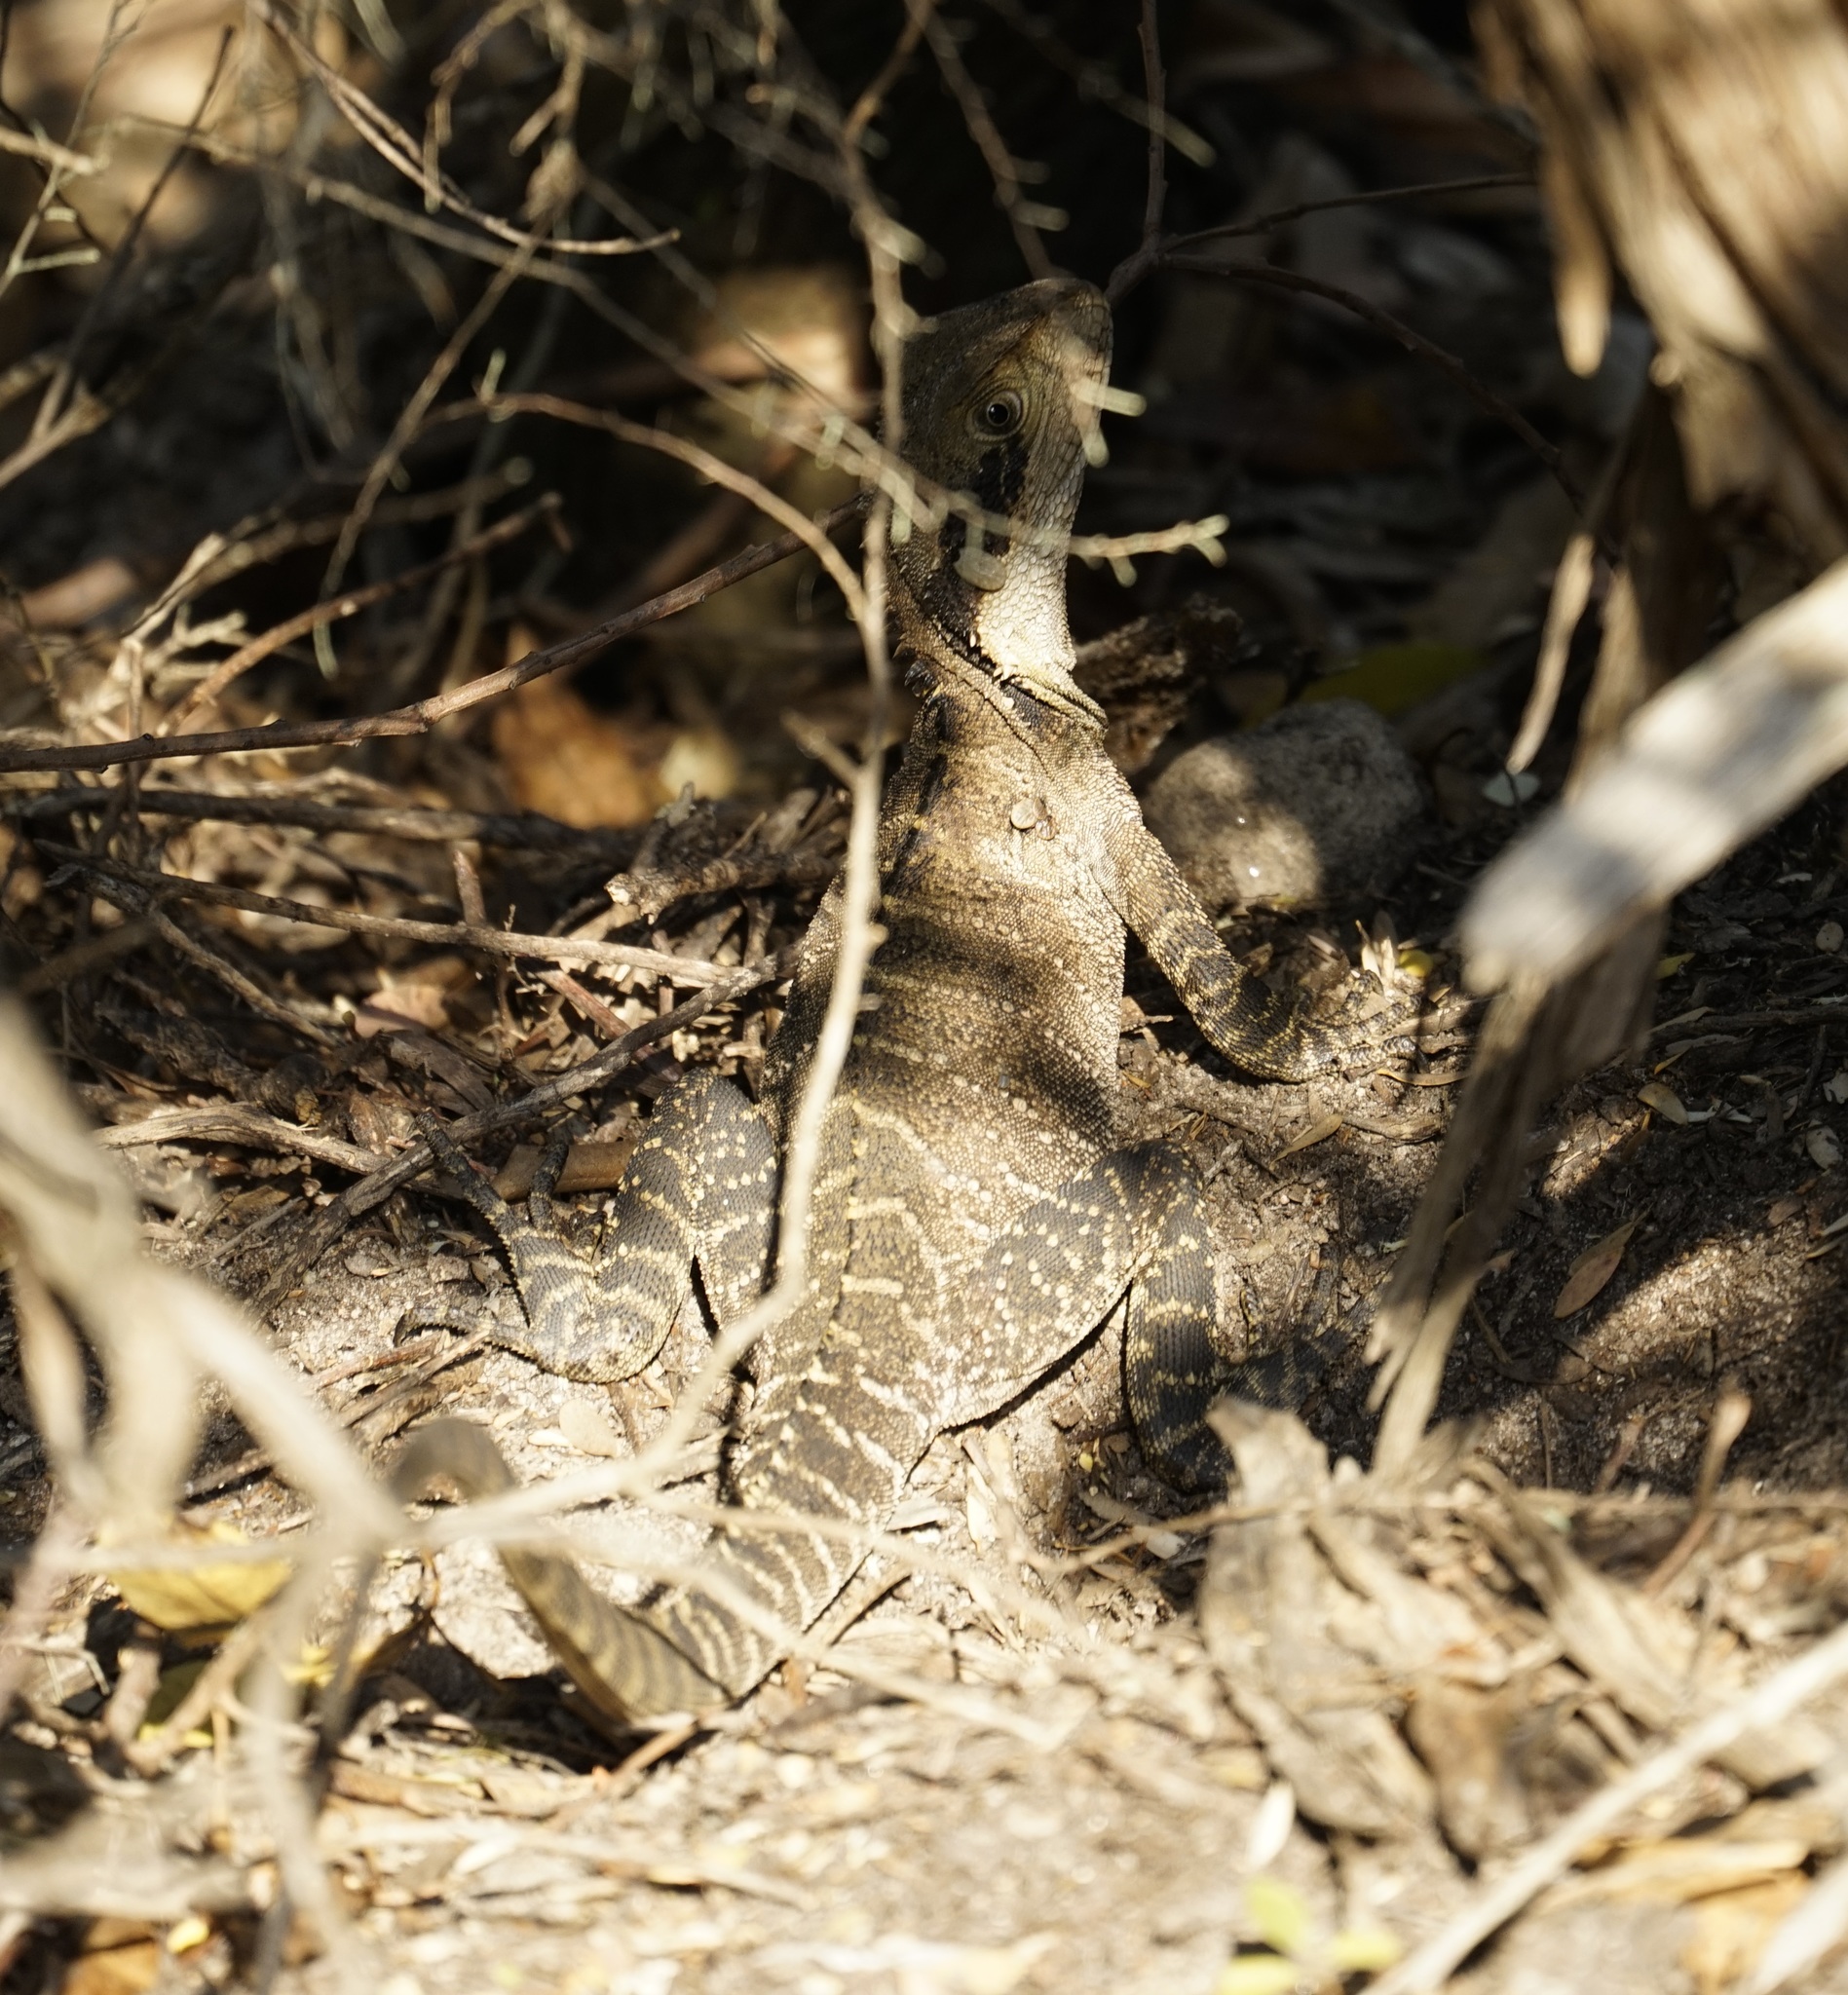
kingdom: Animalia
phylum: Chordata
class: Squamata
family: Agamidae
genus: Intellagama
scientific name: Intellagama lesueurii
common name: Eastern water dragon
